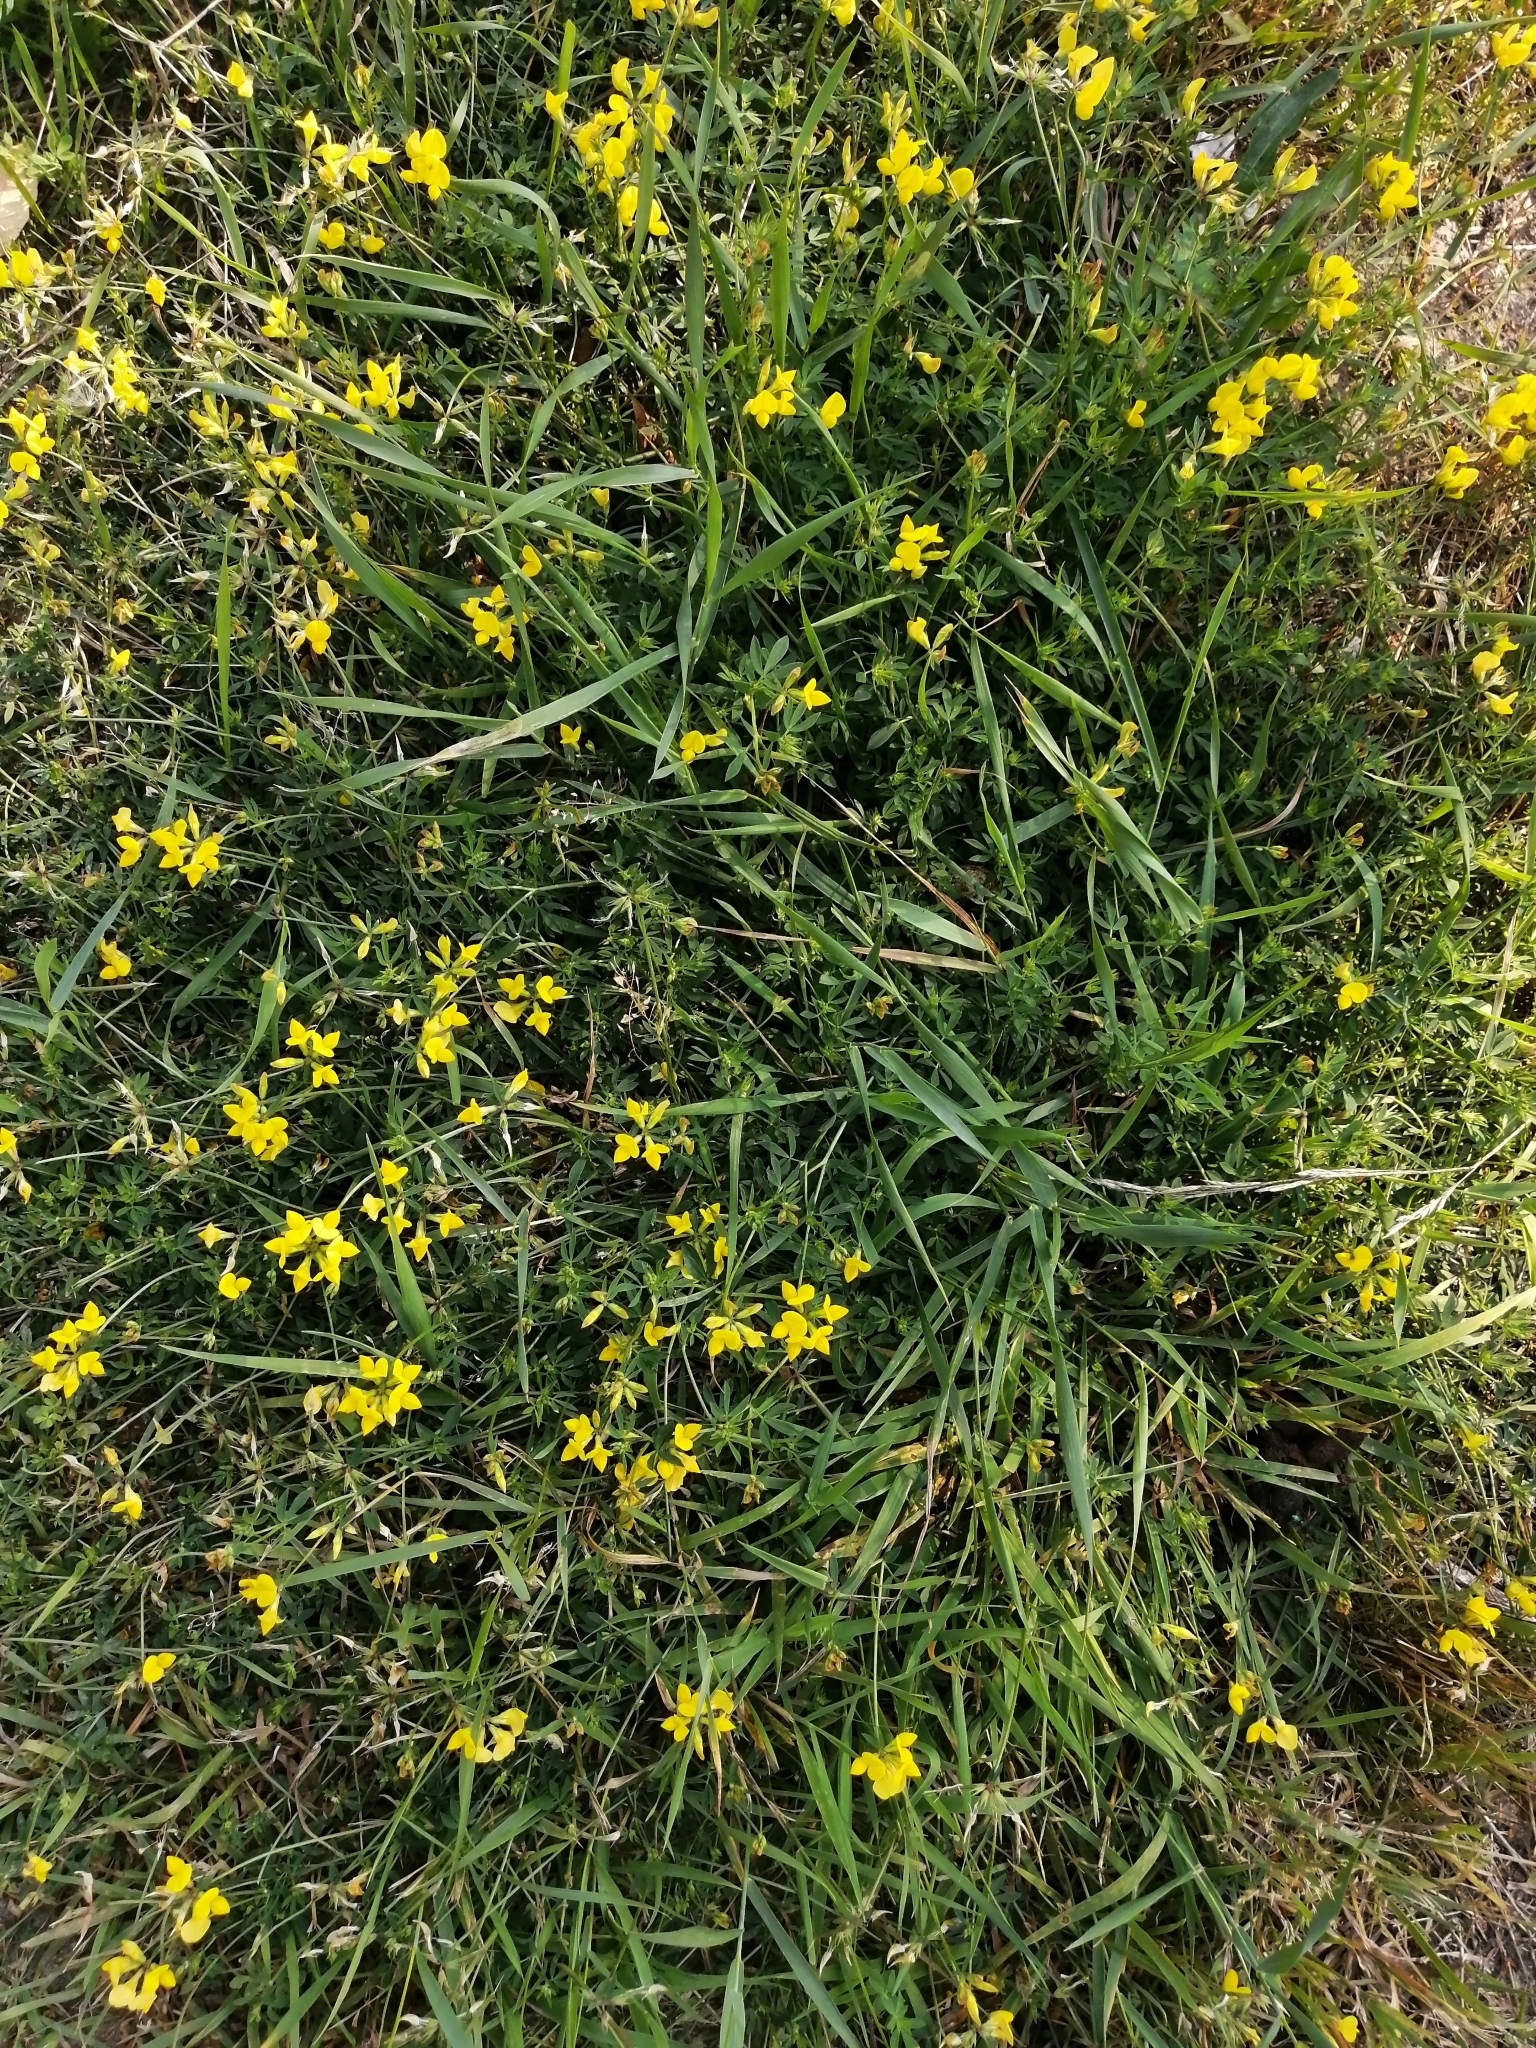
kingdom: Plantae
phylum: Tracheophyta
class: Magnoliopsida
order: Fabales
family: Fabaceae
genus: Lotus
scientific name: Lotus corniculatus
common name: Common bird's-foot-trefoil
